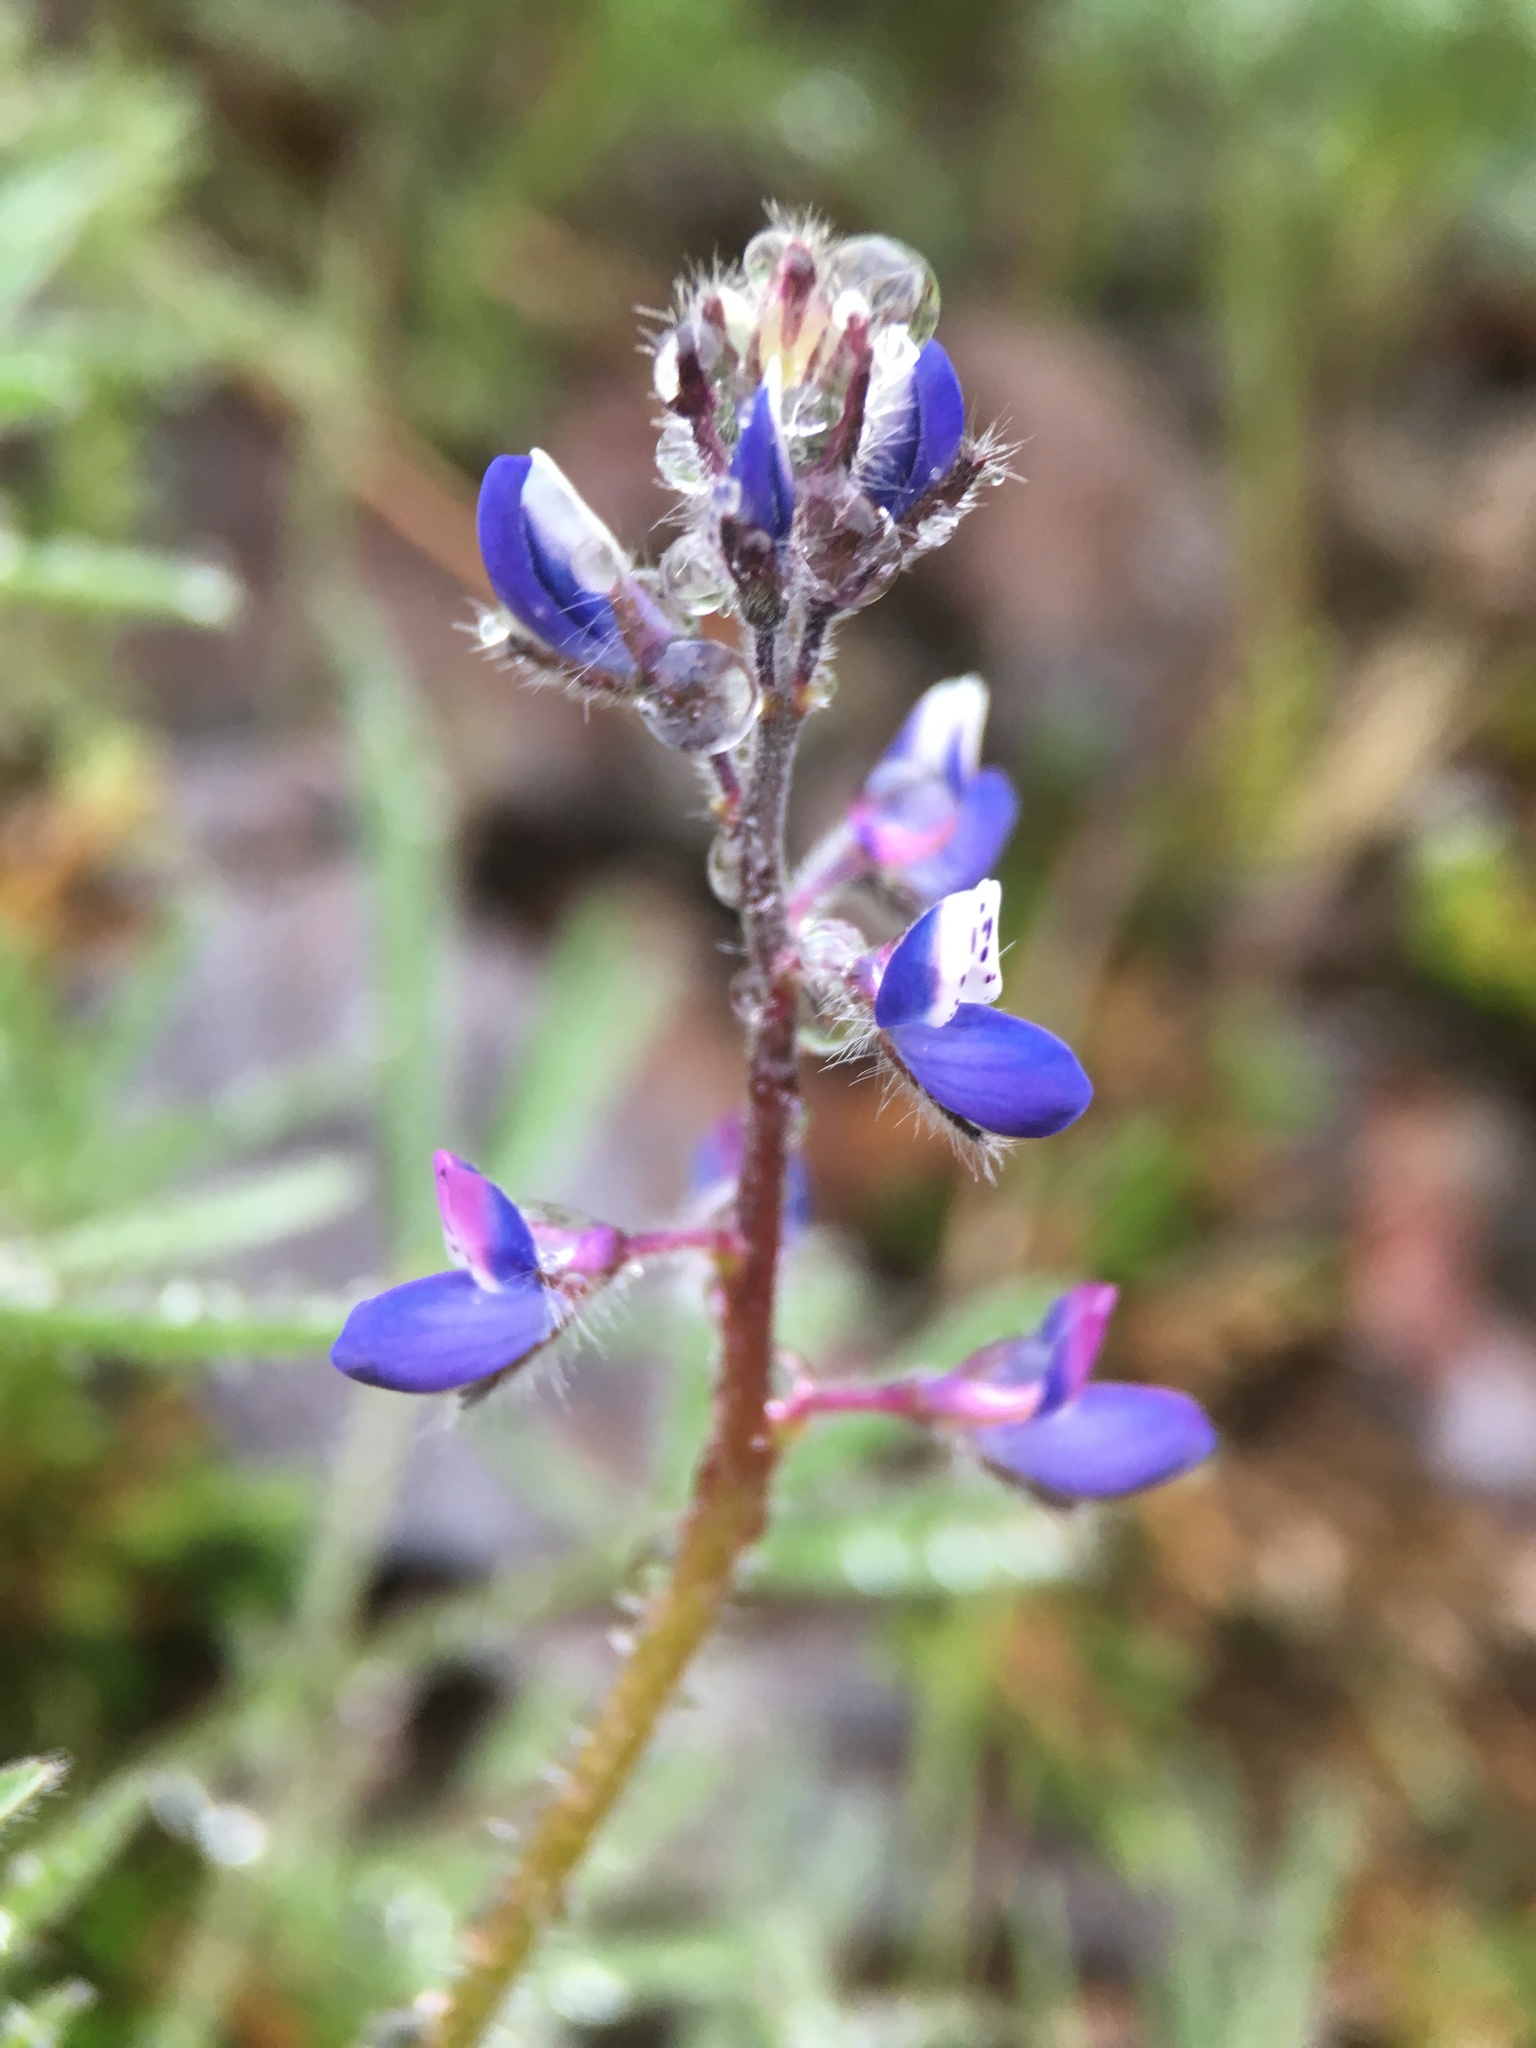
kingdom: Plantae
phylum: Tracheophyta
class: Magnoliopsida
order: Fabales
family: Fabaceae
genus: Lupinus
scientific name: Lupinus bicolor
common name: Miniature lupine
